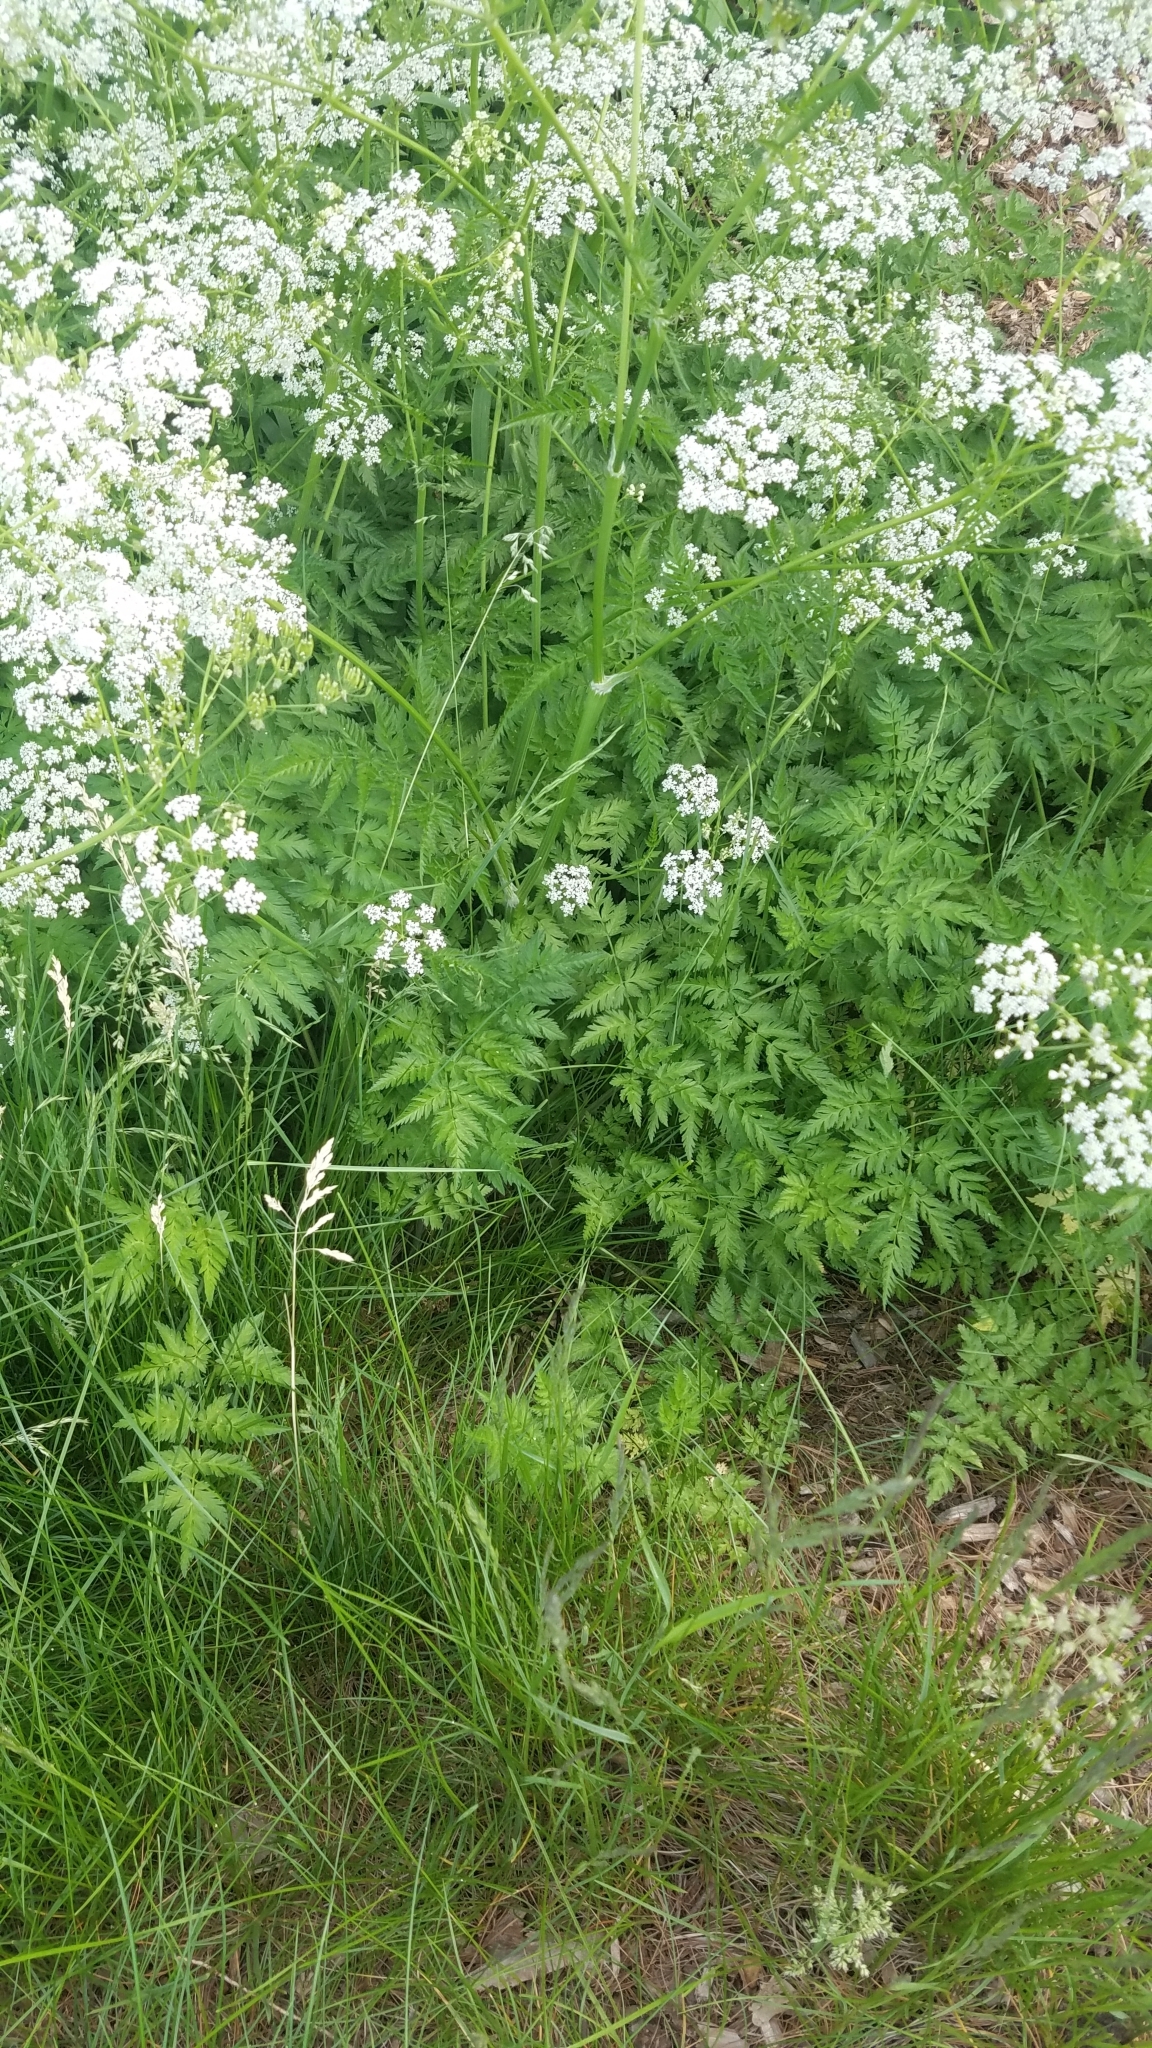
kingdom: Plantae
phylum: Tracheophyta
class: Magnoliopsida
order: Apiales
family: Apiaceae
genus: Anthriscus
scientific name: Anthriscus sylvestris
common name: Cow parsley
